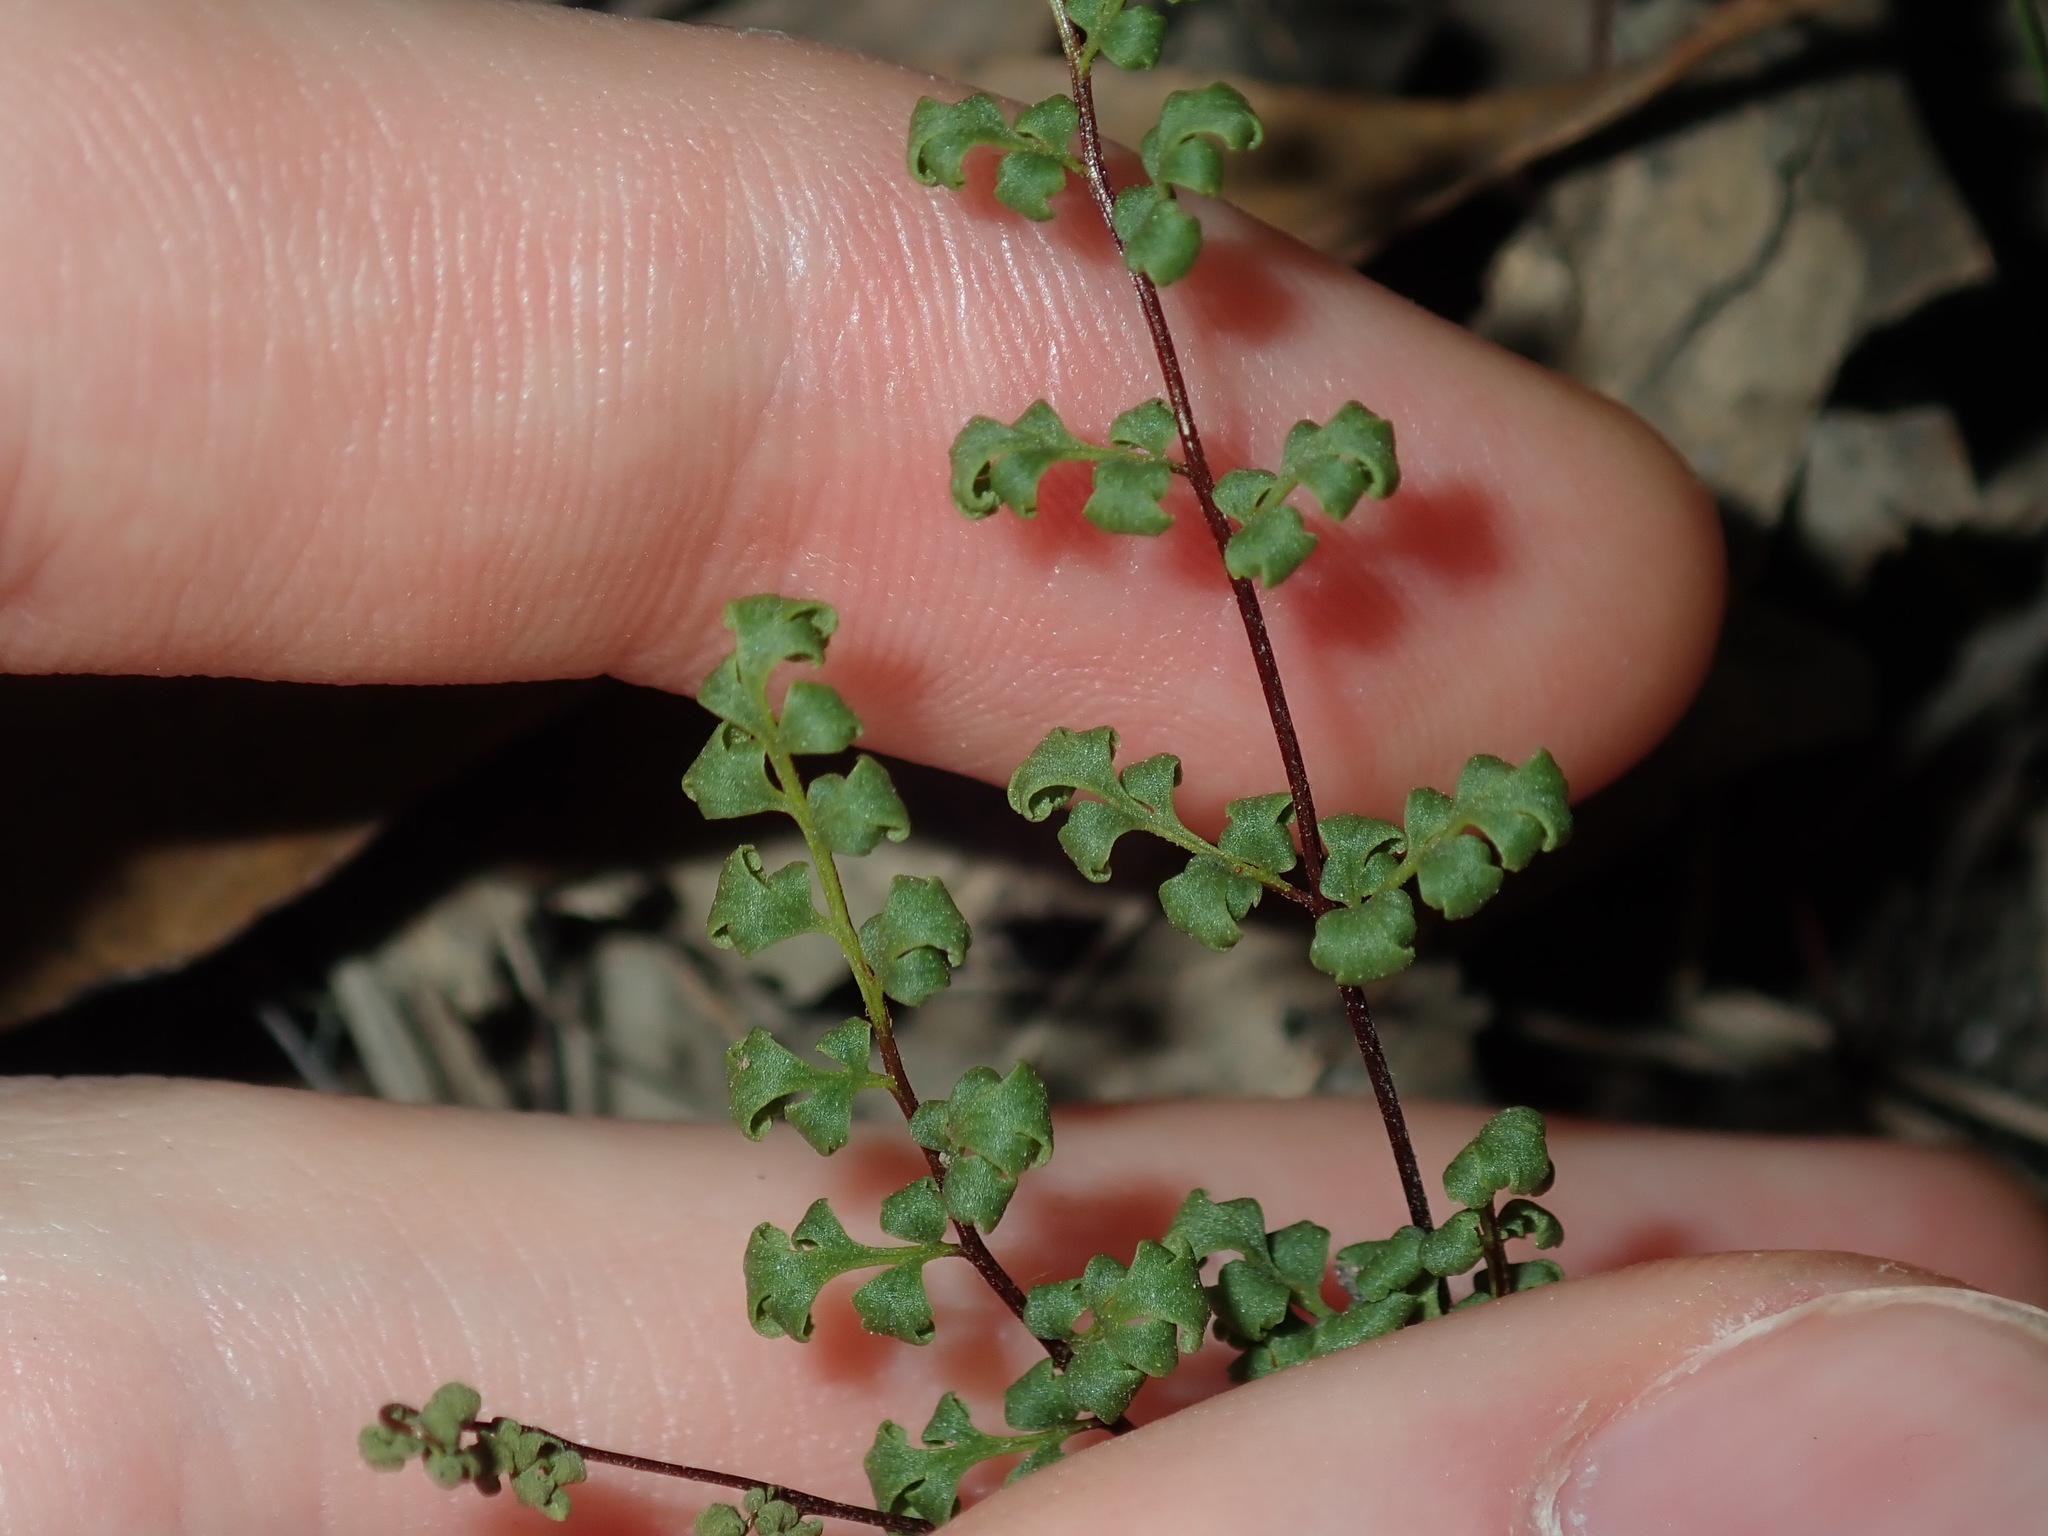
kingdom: Plantae
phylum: Tracheophyta
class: Polypodiopsida
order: Polypodiales
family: Pteridaceae
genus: Cheilanthes
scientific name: Cheilanthes sieberi
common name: Mulga fern
